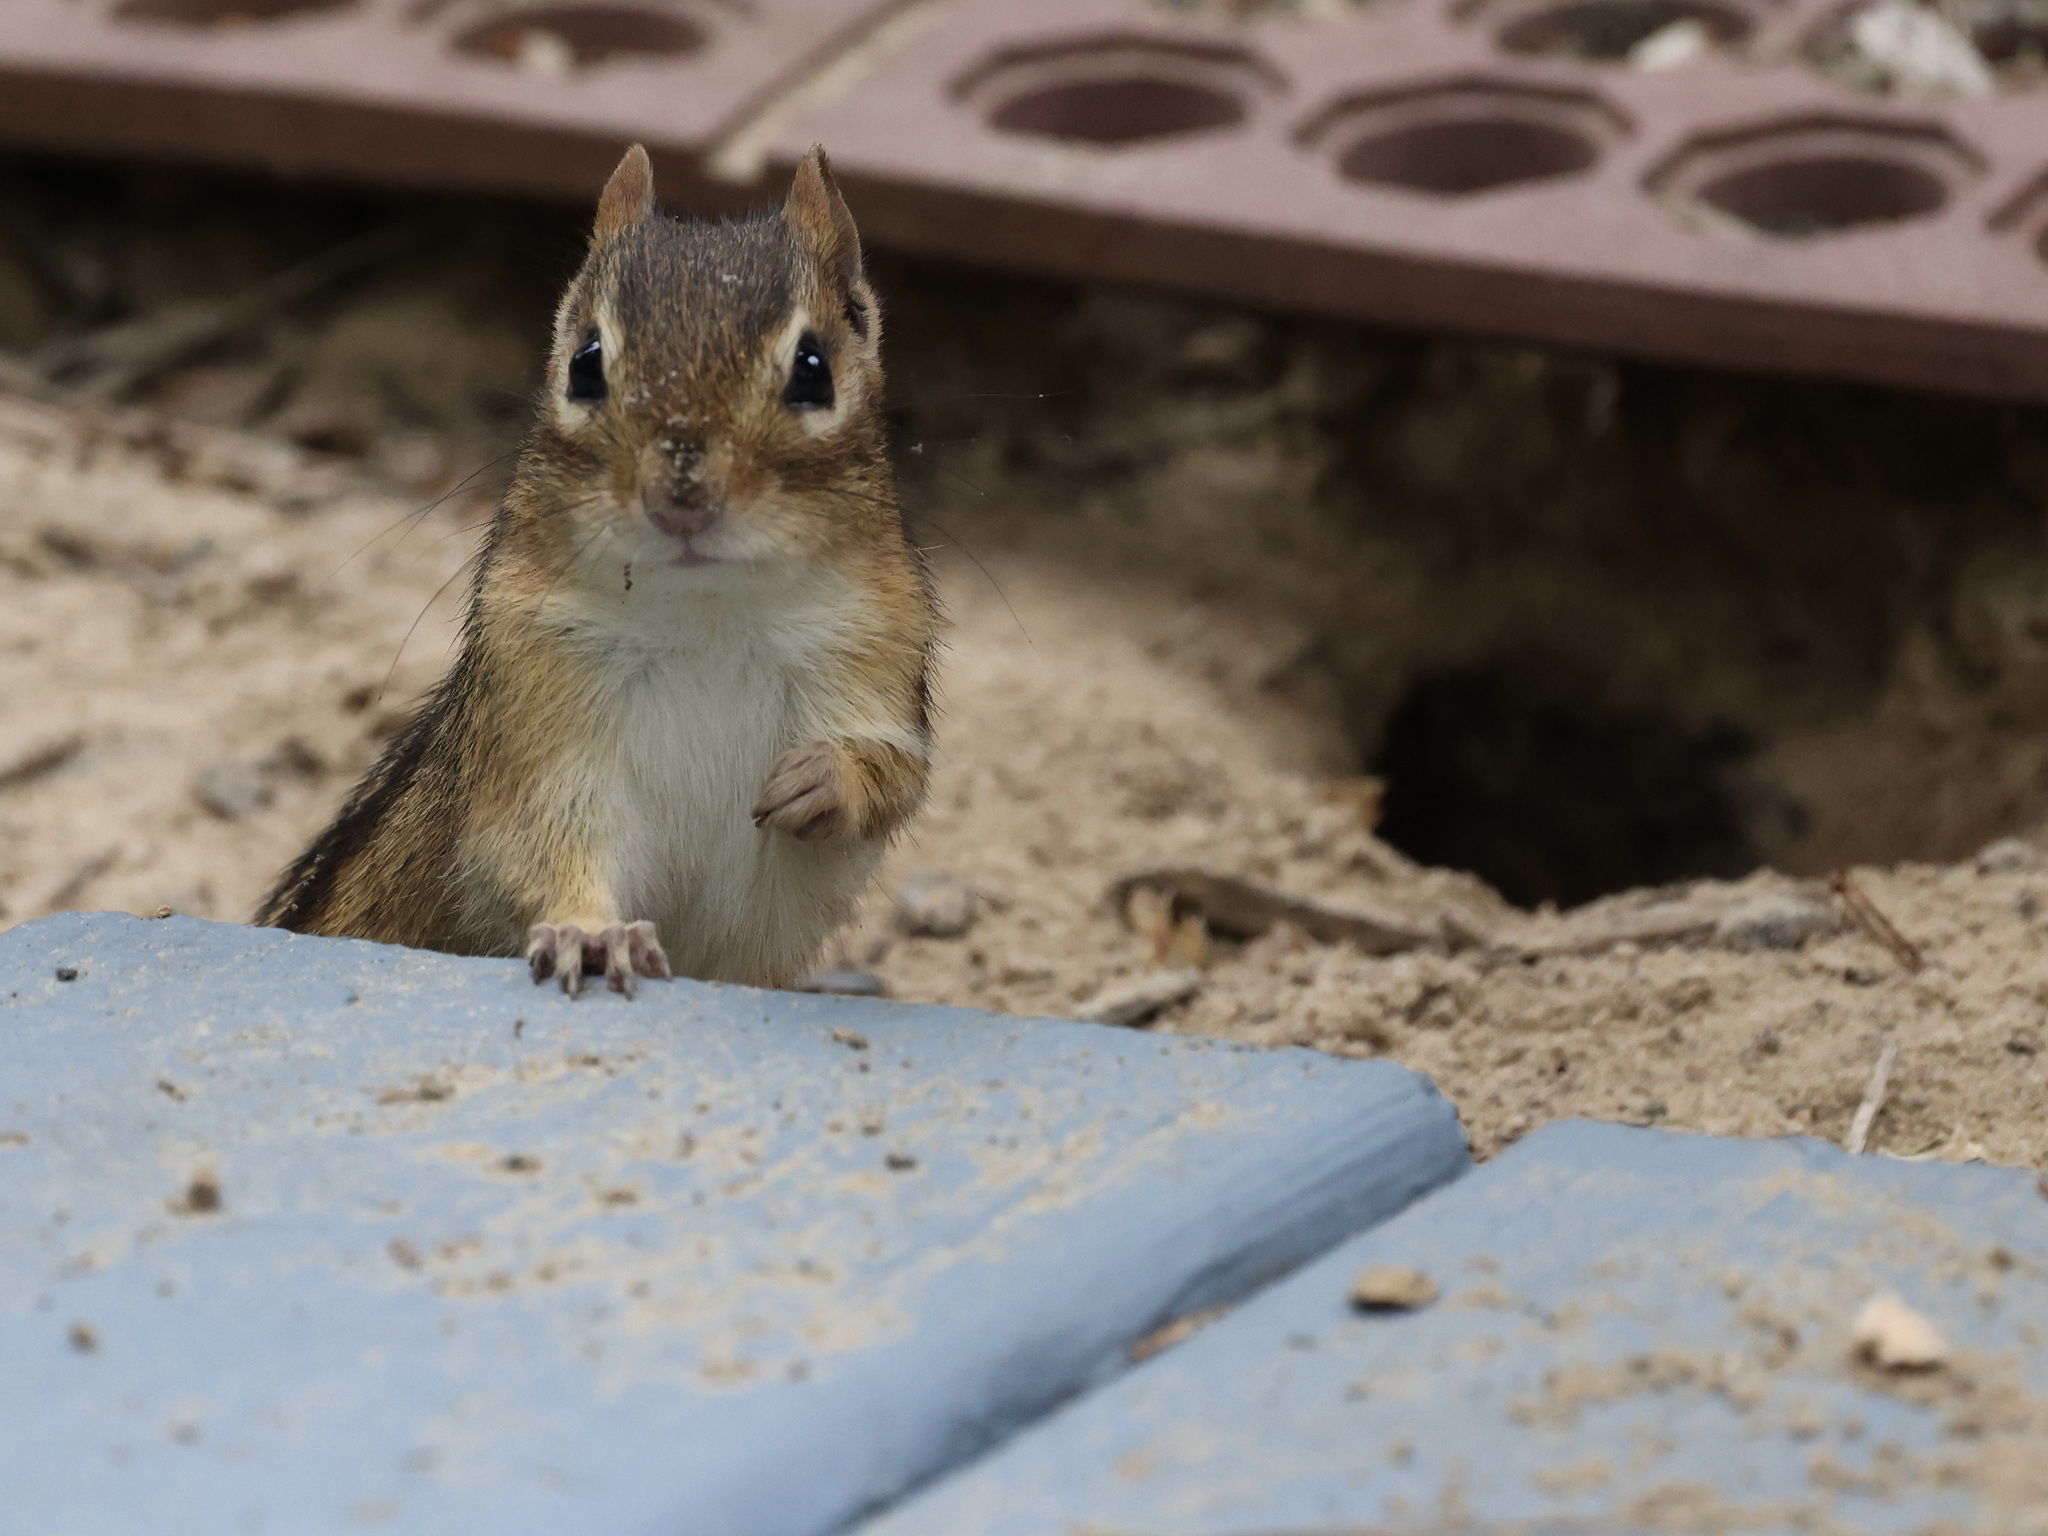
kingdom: Animalia
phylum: Chordata
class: Mammalia
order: Rodentia
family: Sciuridae
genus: Tamias
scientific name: Tamias striatus
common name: Eastern chipmunk
